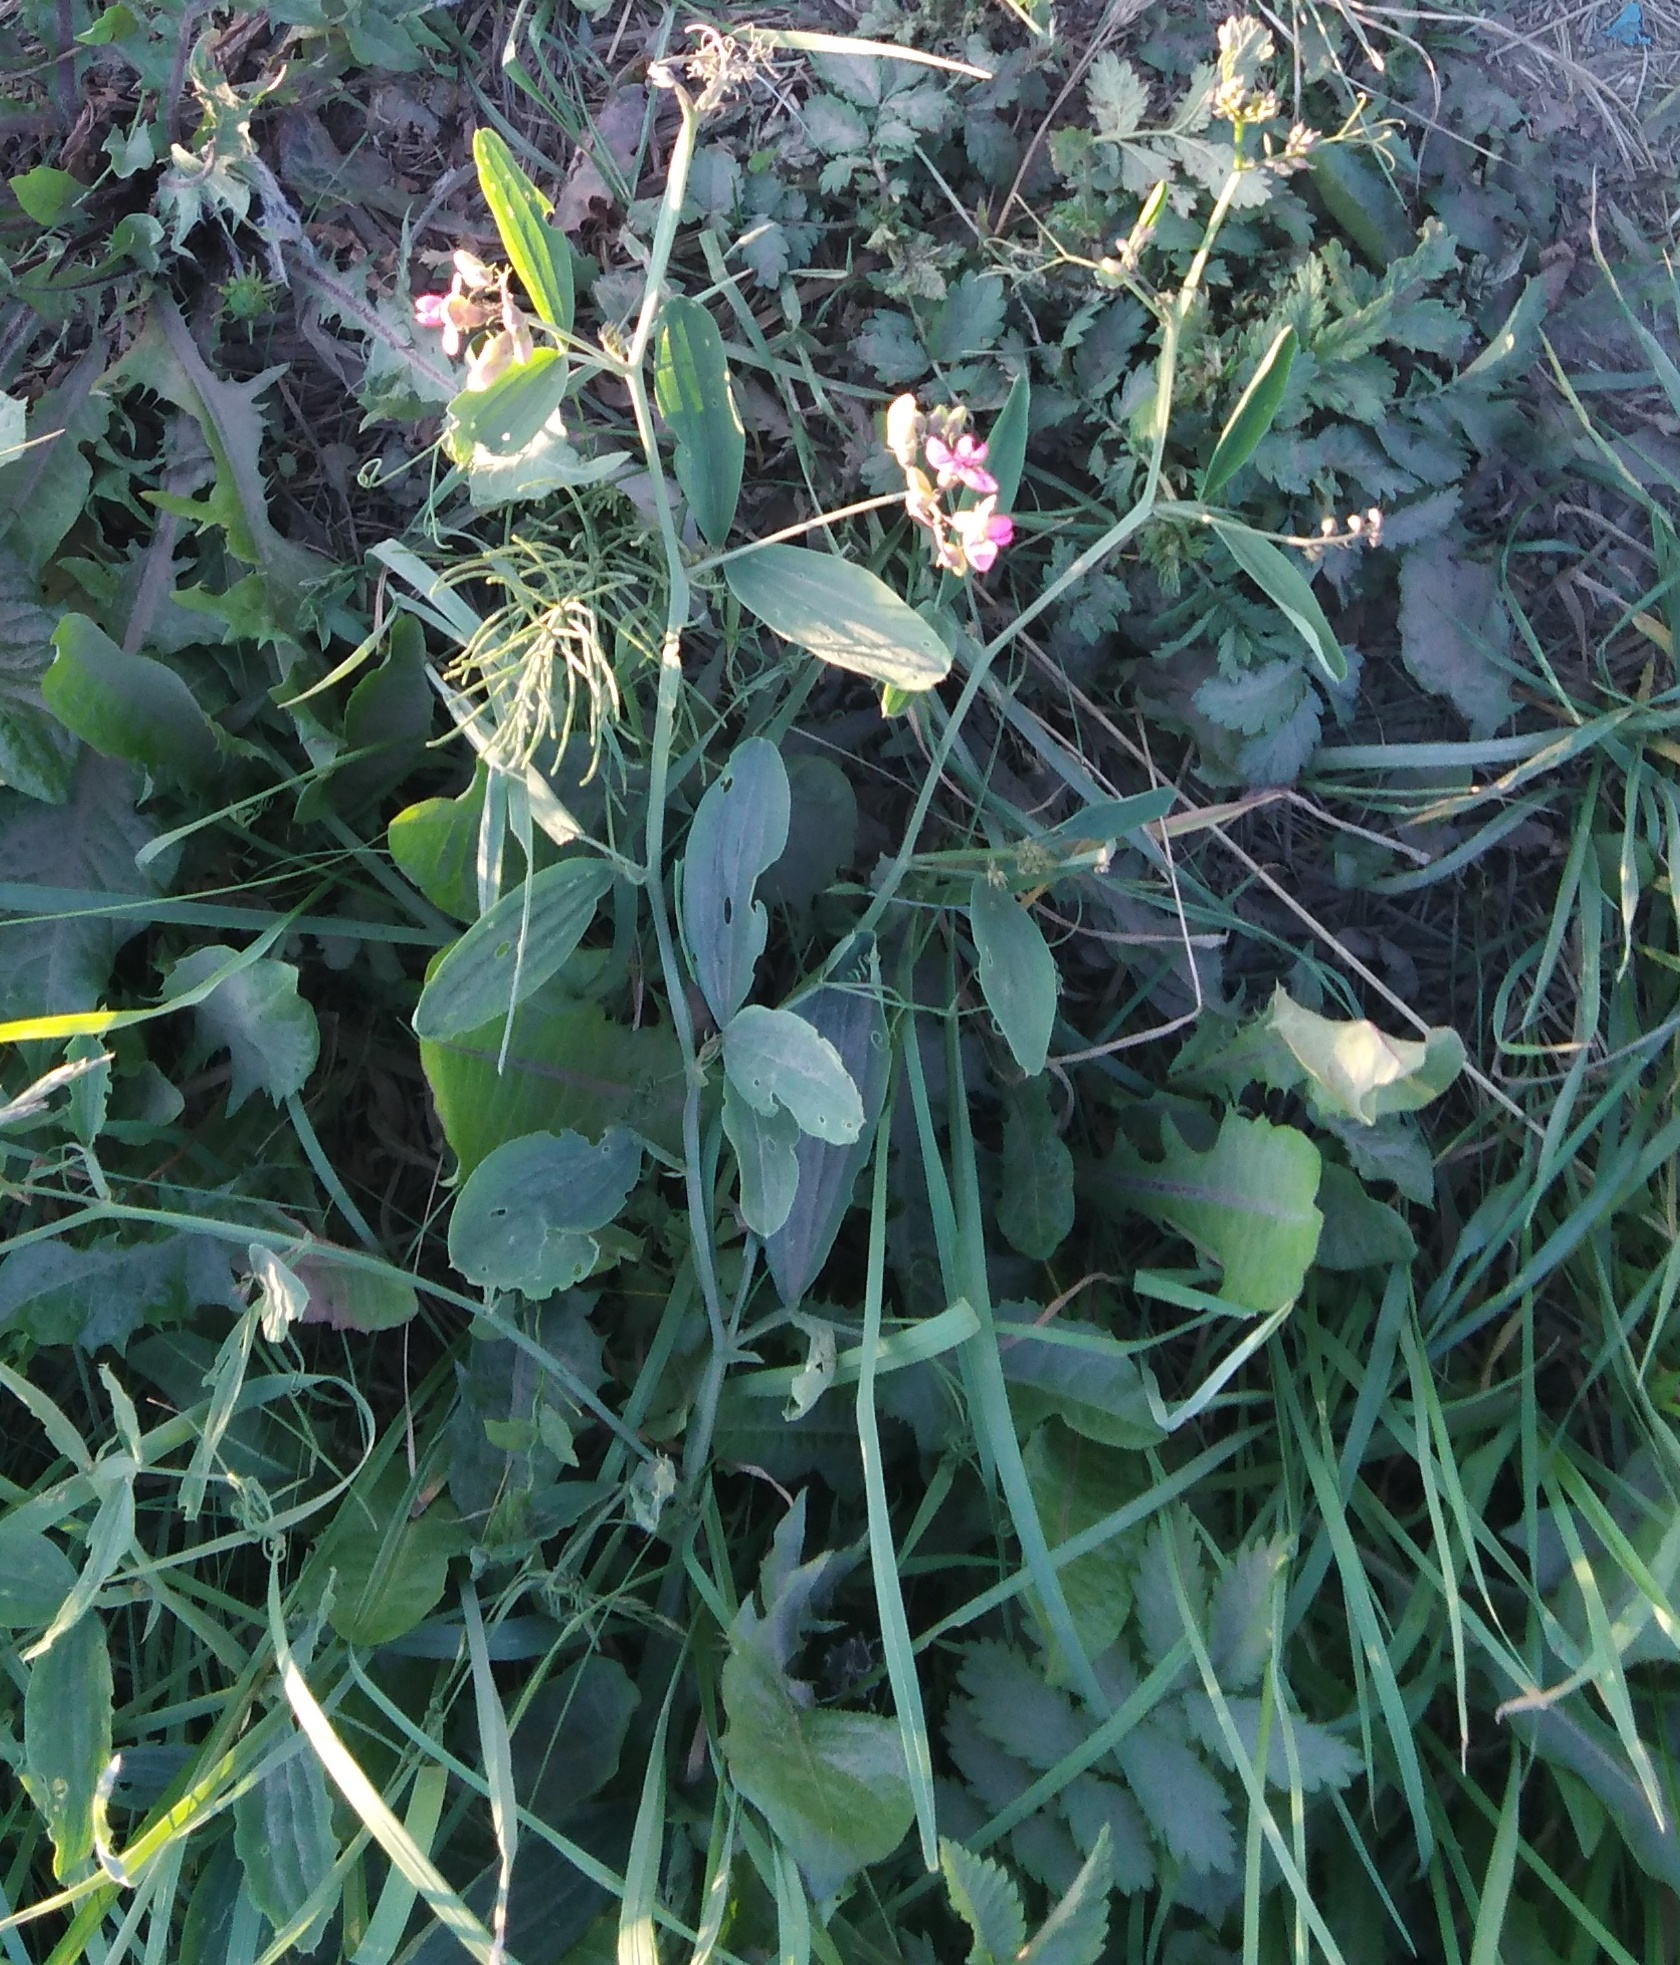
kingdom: Plantae
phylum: Tracheophyta
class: Magnoliopsida
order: Fabales
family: Fabaceae
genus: Lathyrus
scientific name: Lathyrus sylvestris
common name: Flat pea
